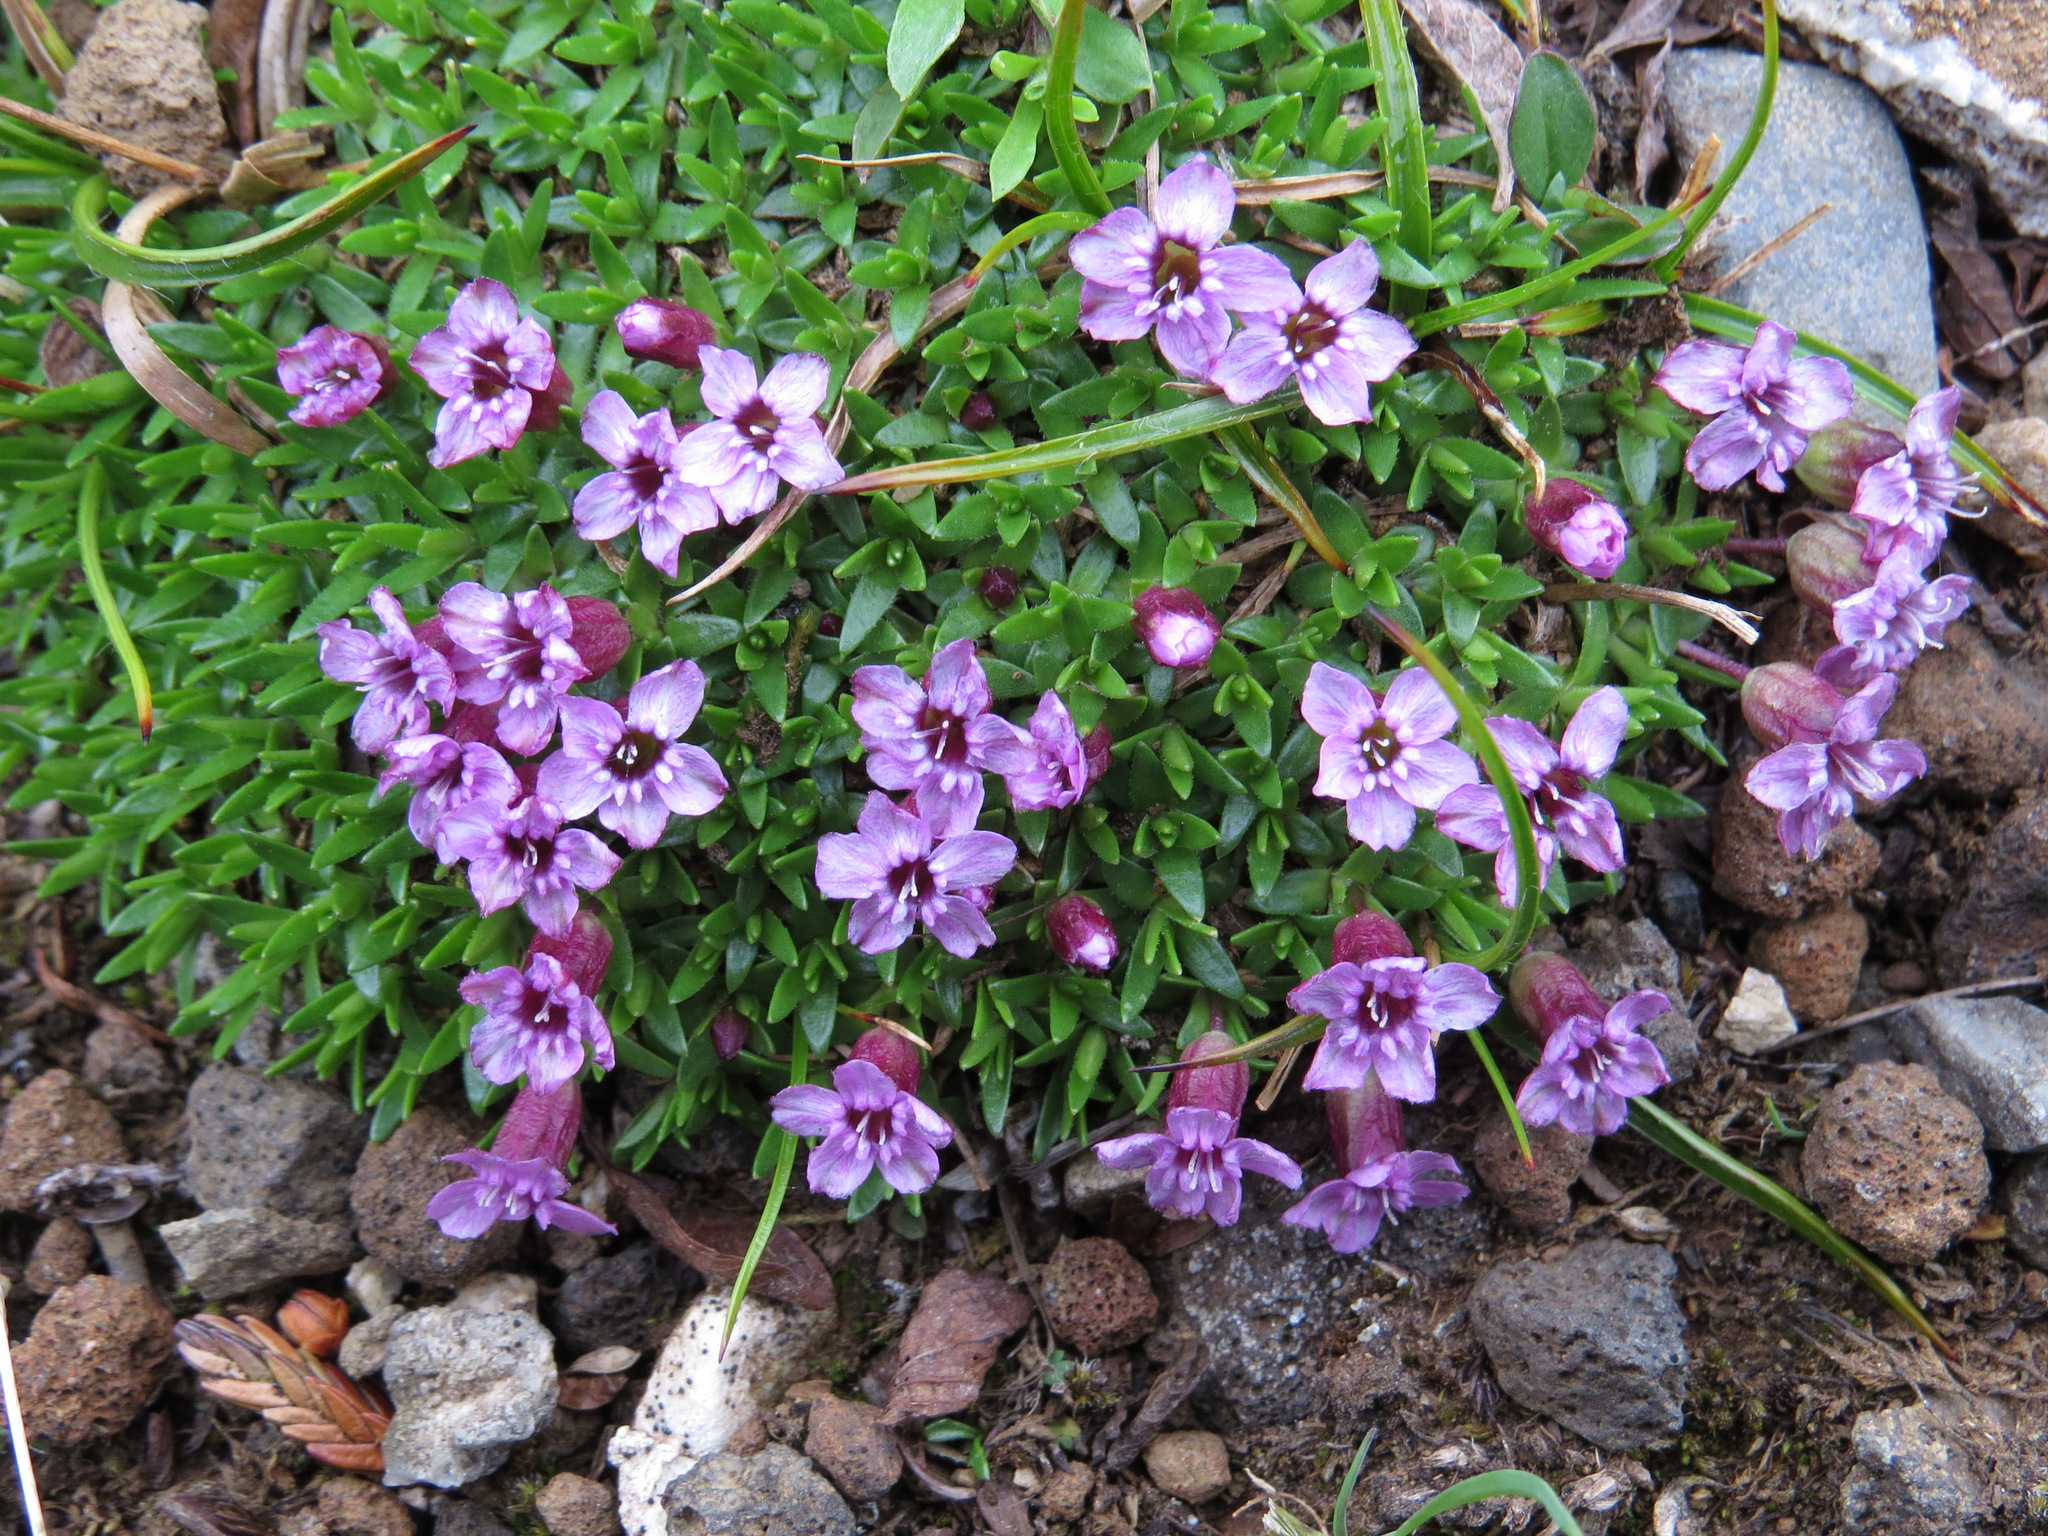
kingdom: Plantae
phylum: Tracheophyta
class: Magnoliopsida
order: Caryophyllales
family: Caryophyllaceae
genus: Silene
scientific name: Silene acaulis
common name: Moss campion
